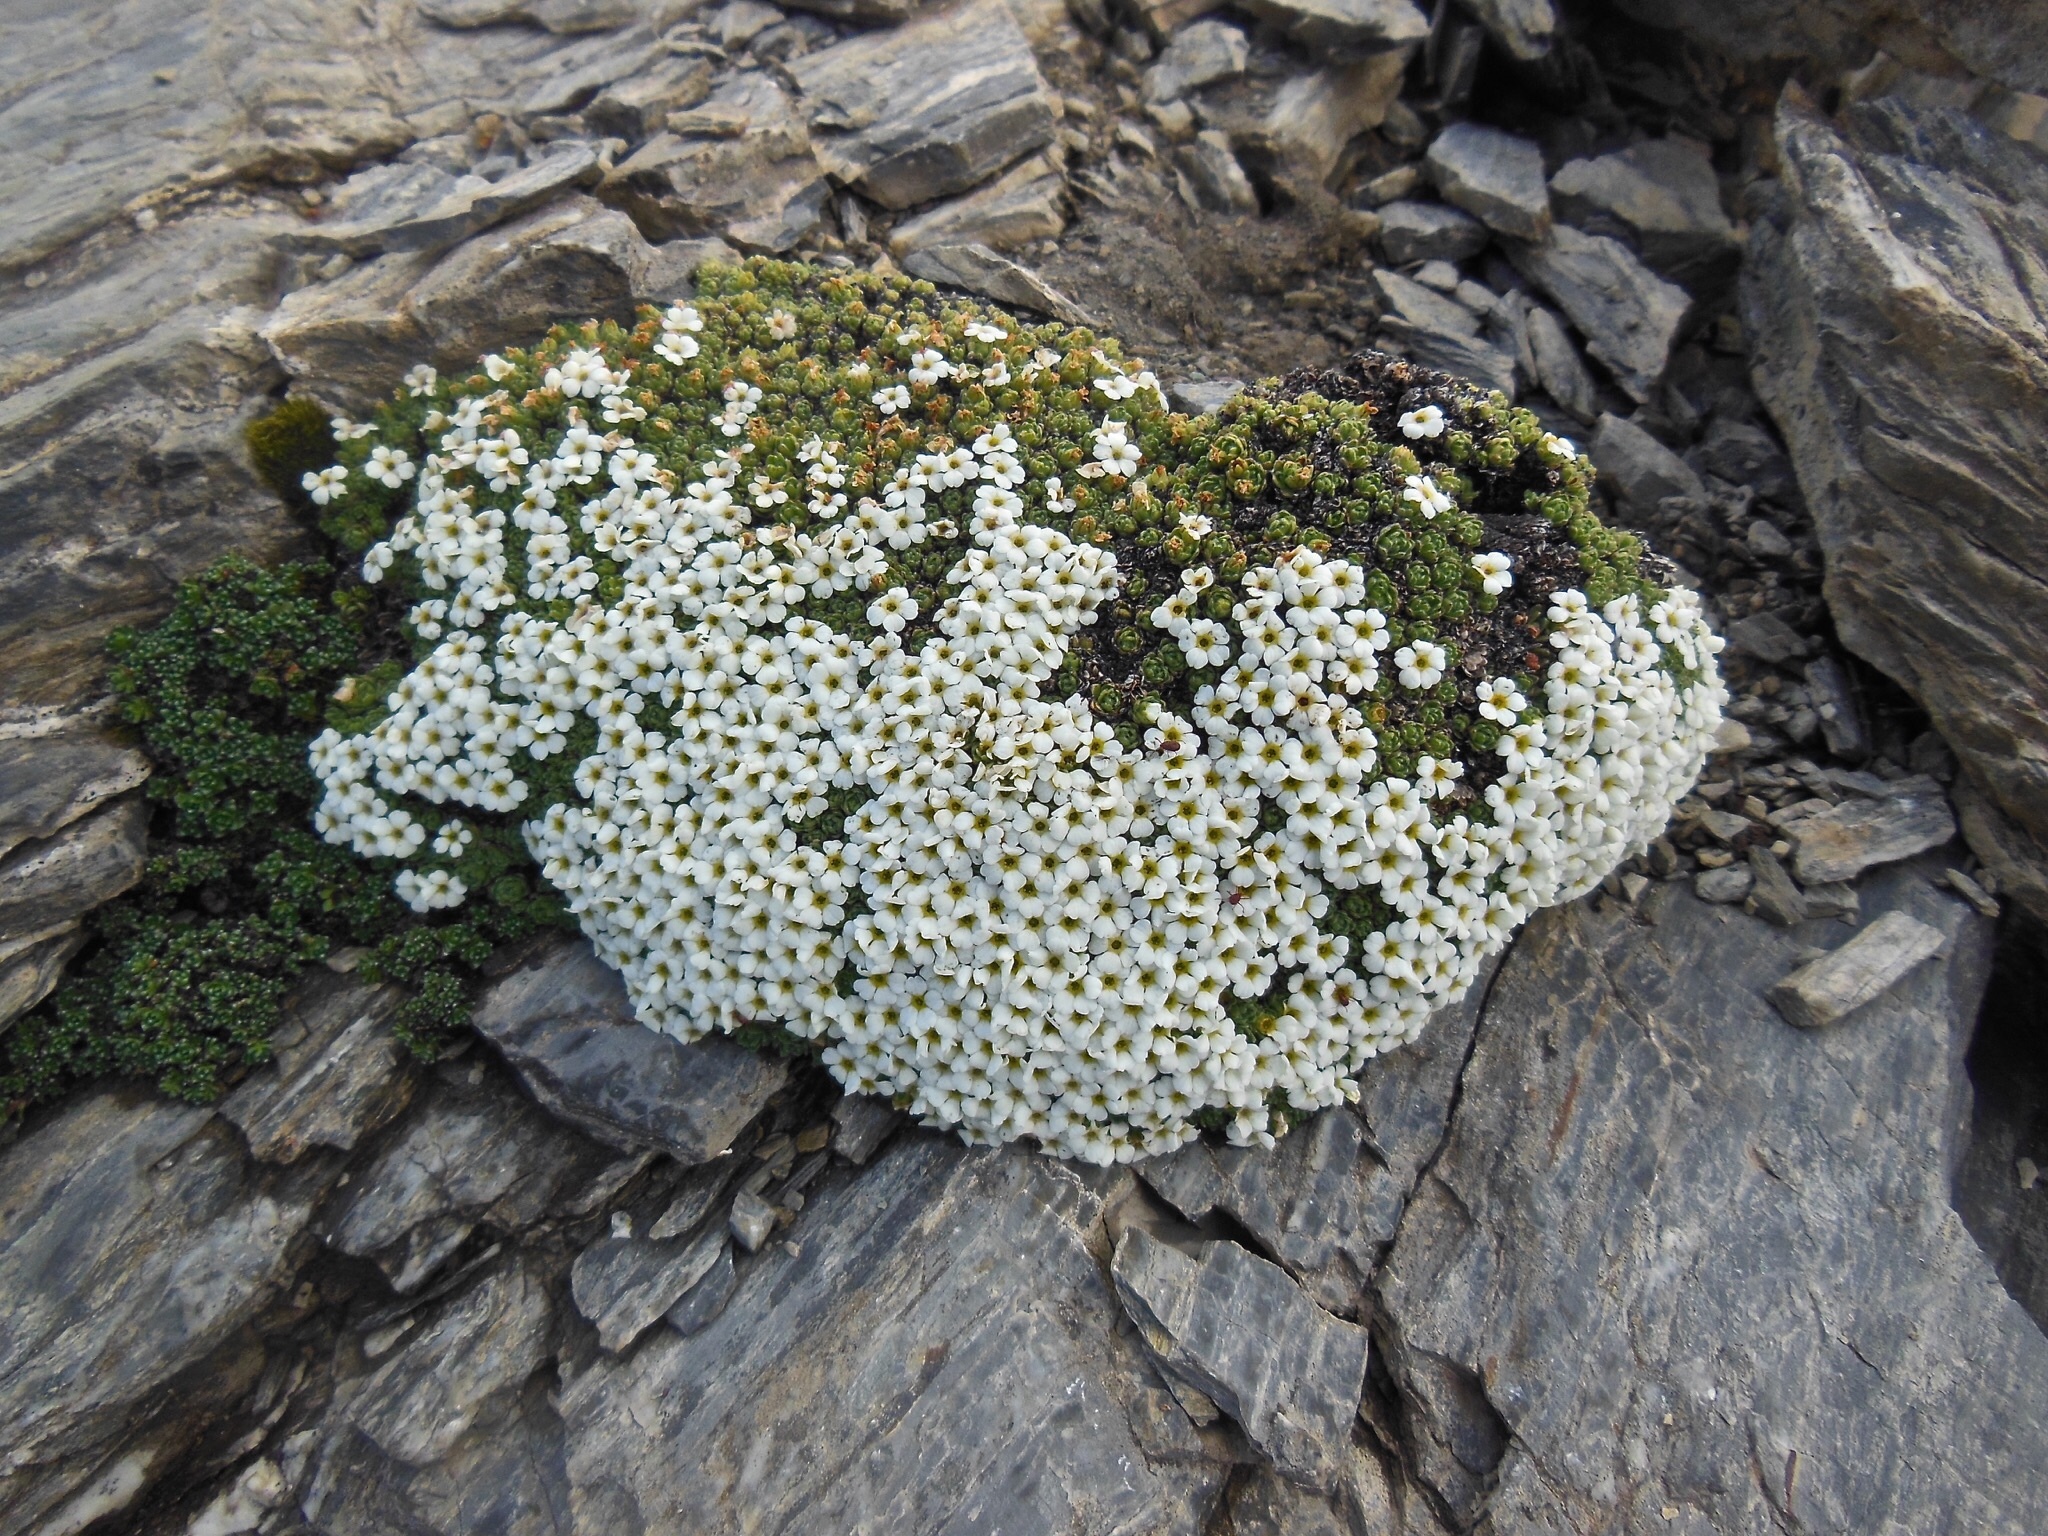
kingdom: Plantae
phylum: Tracheophyta
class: Magnoliopsida
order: Ericales
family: Primulaceae
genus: Androsace
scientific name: Androsace helvetica
